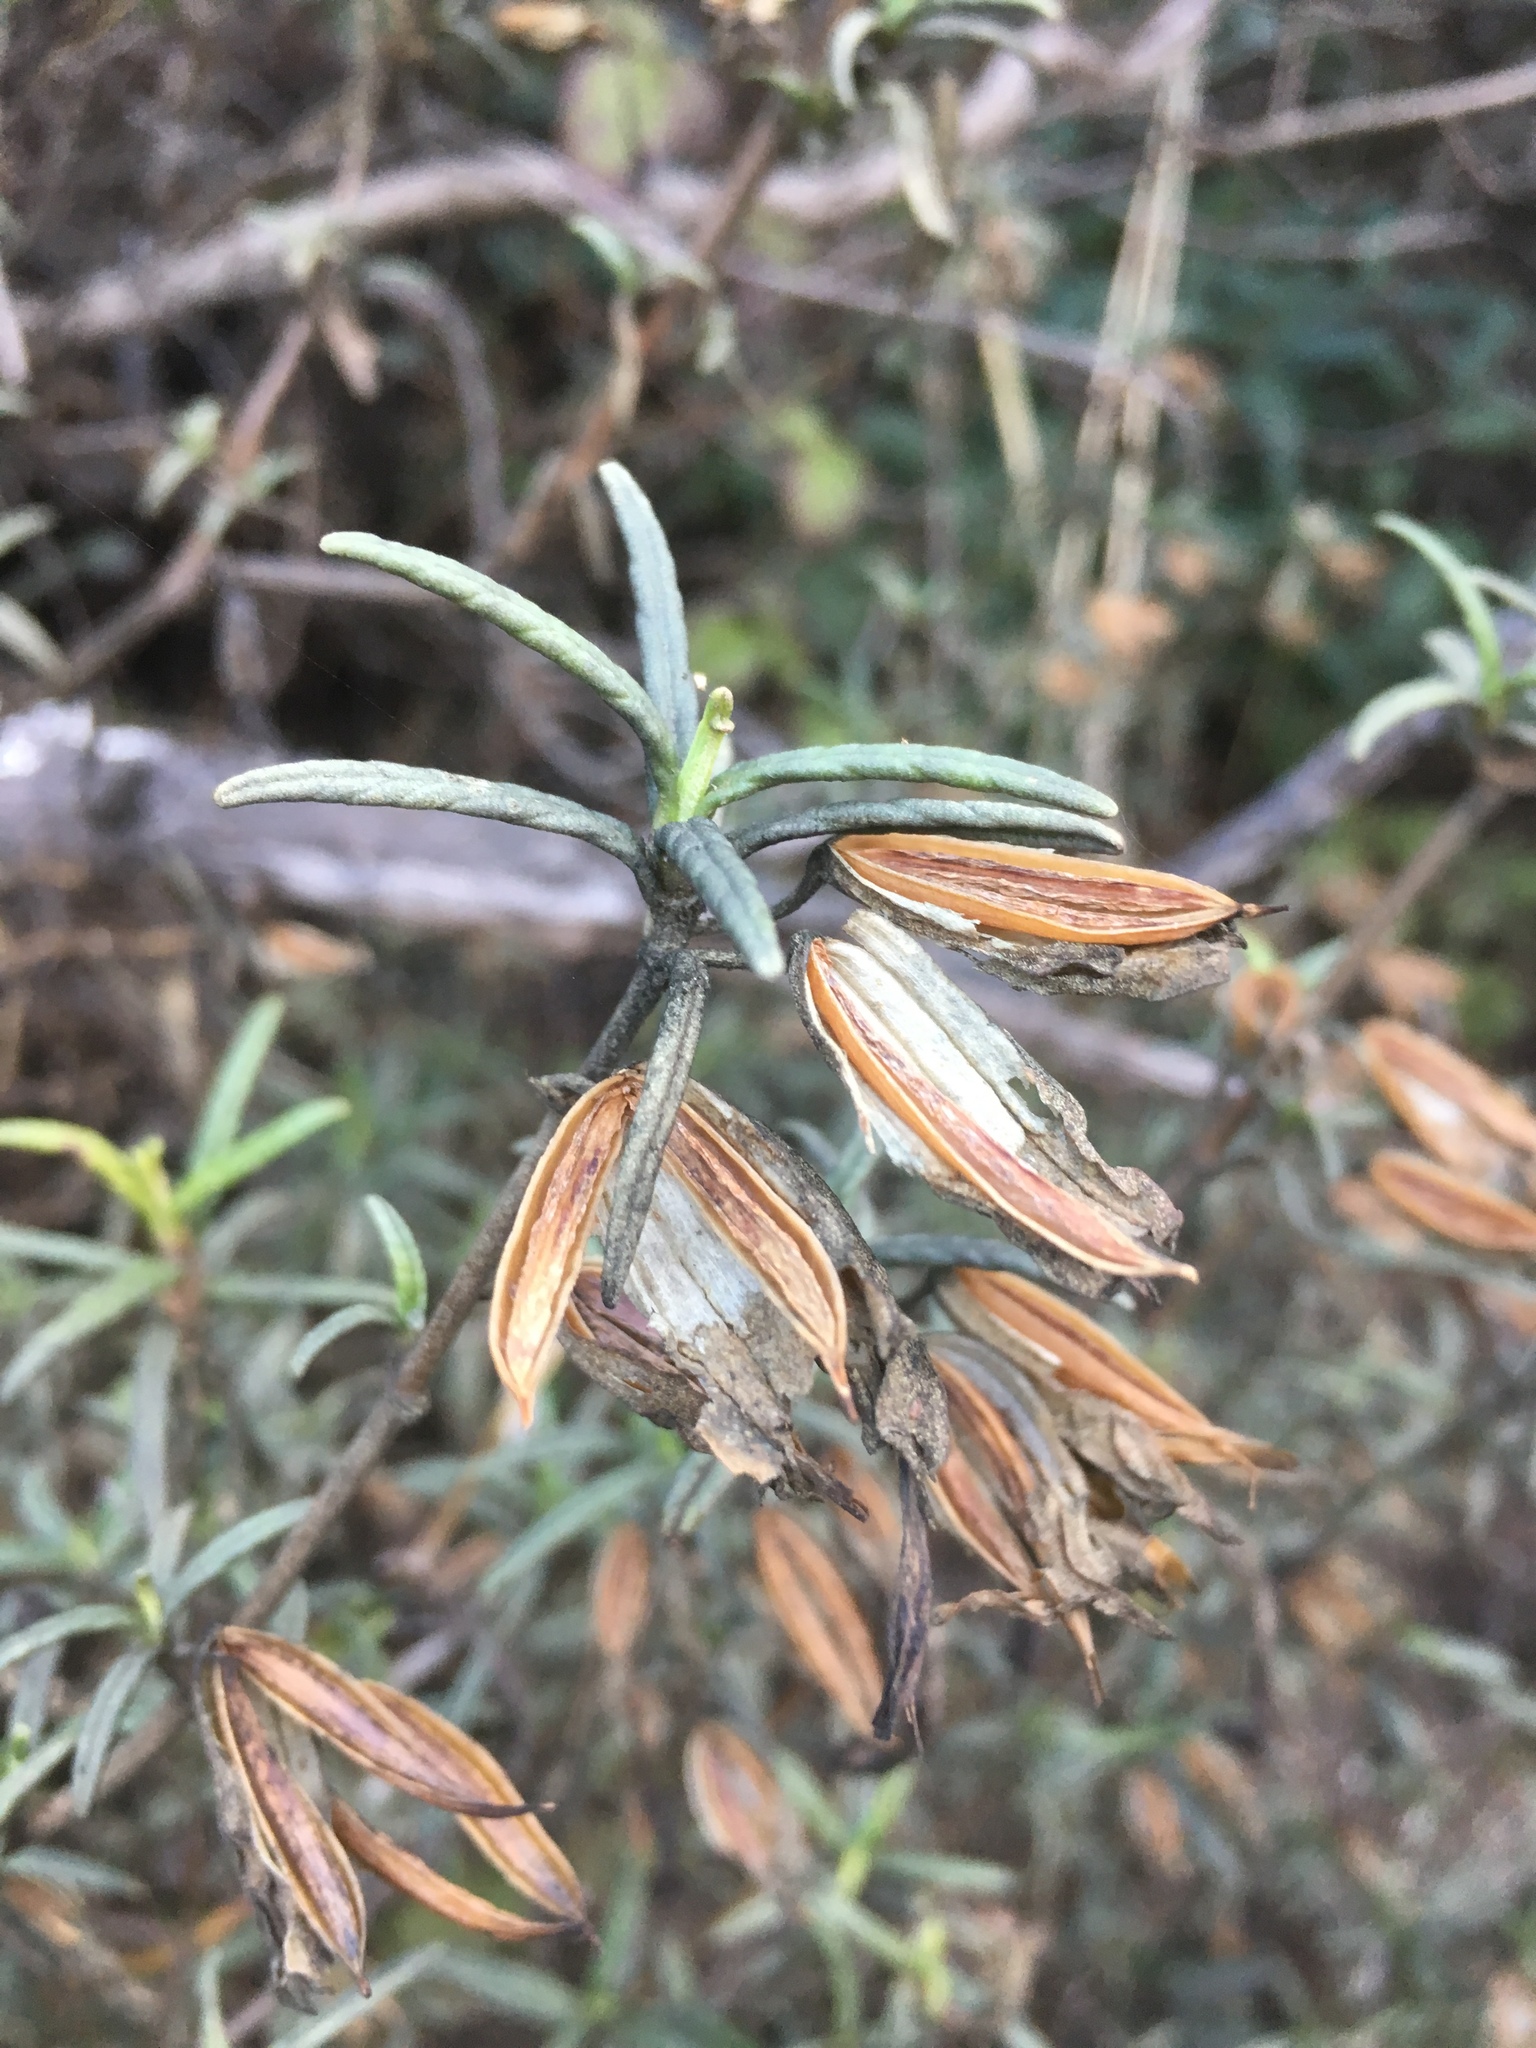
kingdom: Plantae
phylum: Tracheophyta
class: Magnoliopsida
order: Lamiales
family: Phrymaceae
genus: Diplacus
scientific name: Diplacus aurantiacus
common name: Bush monkey-flower
